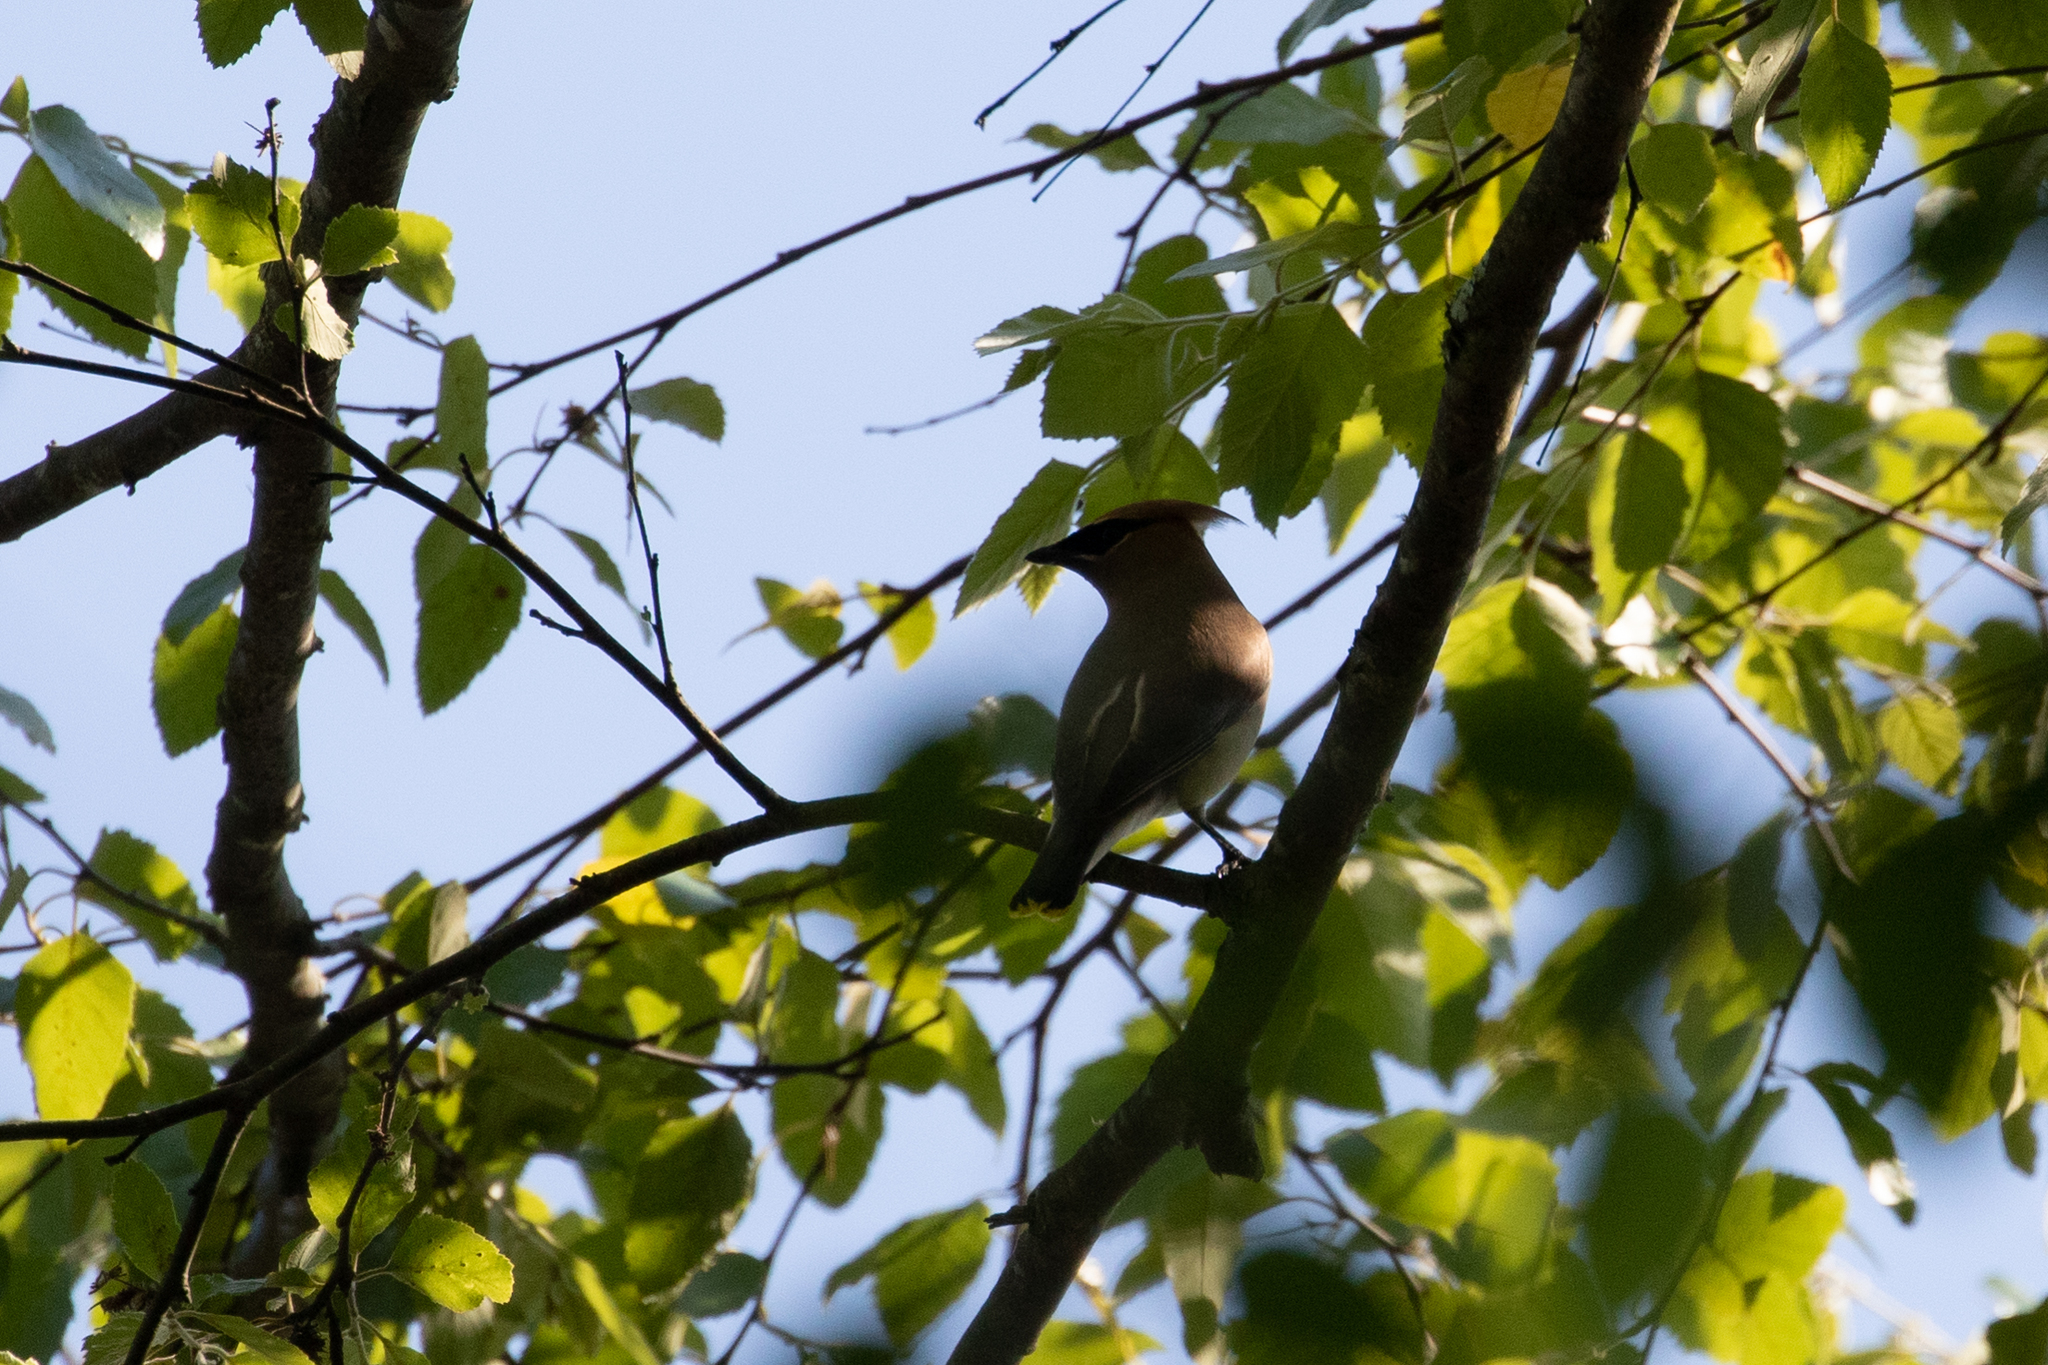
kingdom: Animalia
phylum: Chordata
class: Aves
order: Passeriformes
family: Bombycillidae
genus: Bombycilla
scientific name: Bombycilla cedrorum
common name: Cedar waxwing
